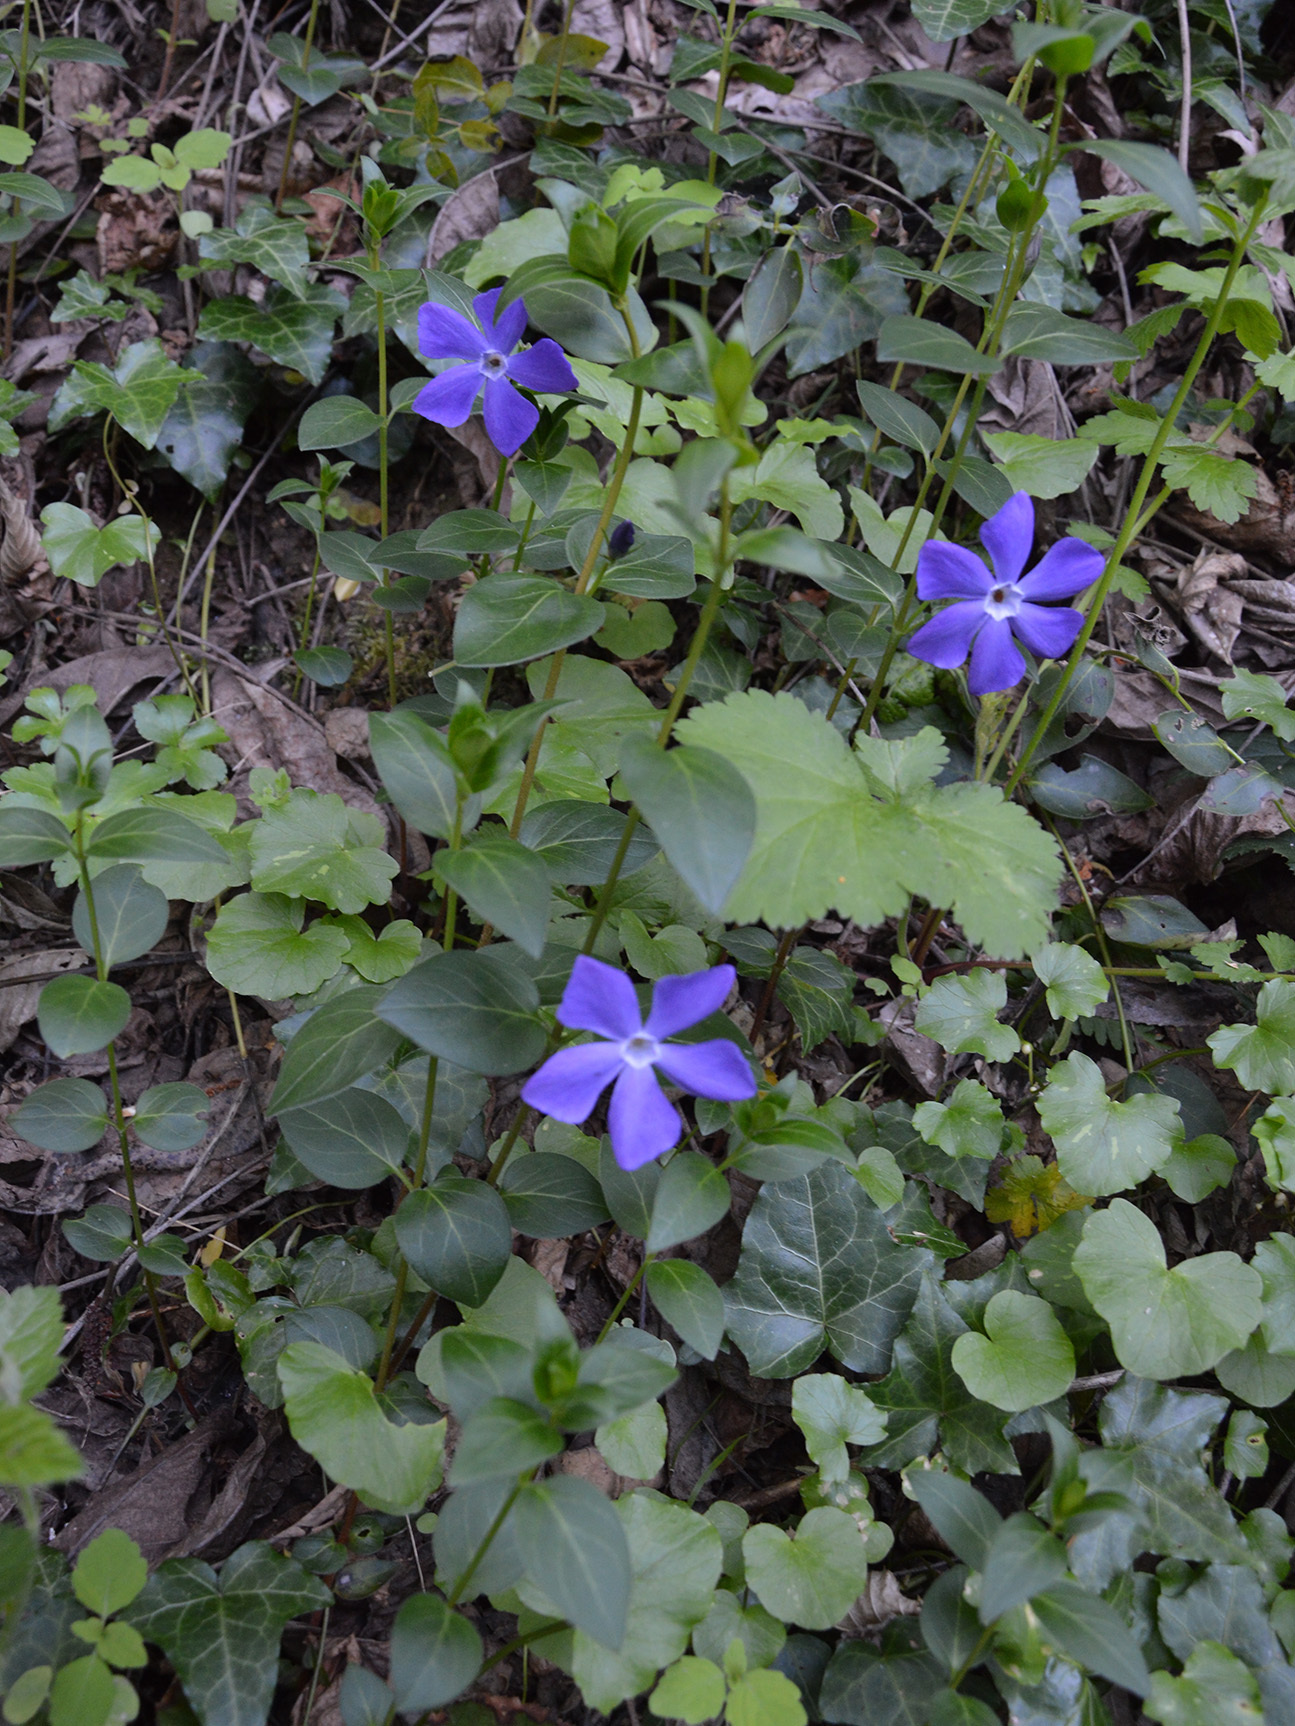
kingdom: Plantae
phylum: Tracheophyta
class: Magnoliopsida
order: Gentianales
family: Apocynaceae
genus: Vinca
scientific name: Vinca major
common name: Greater periwinkle
